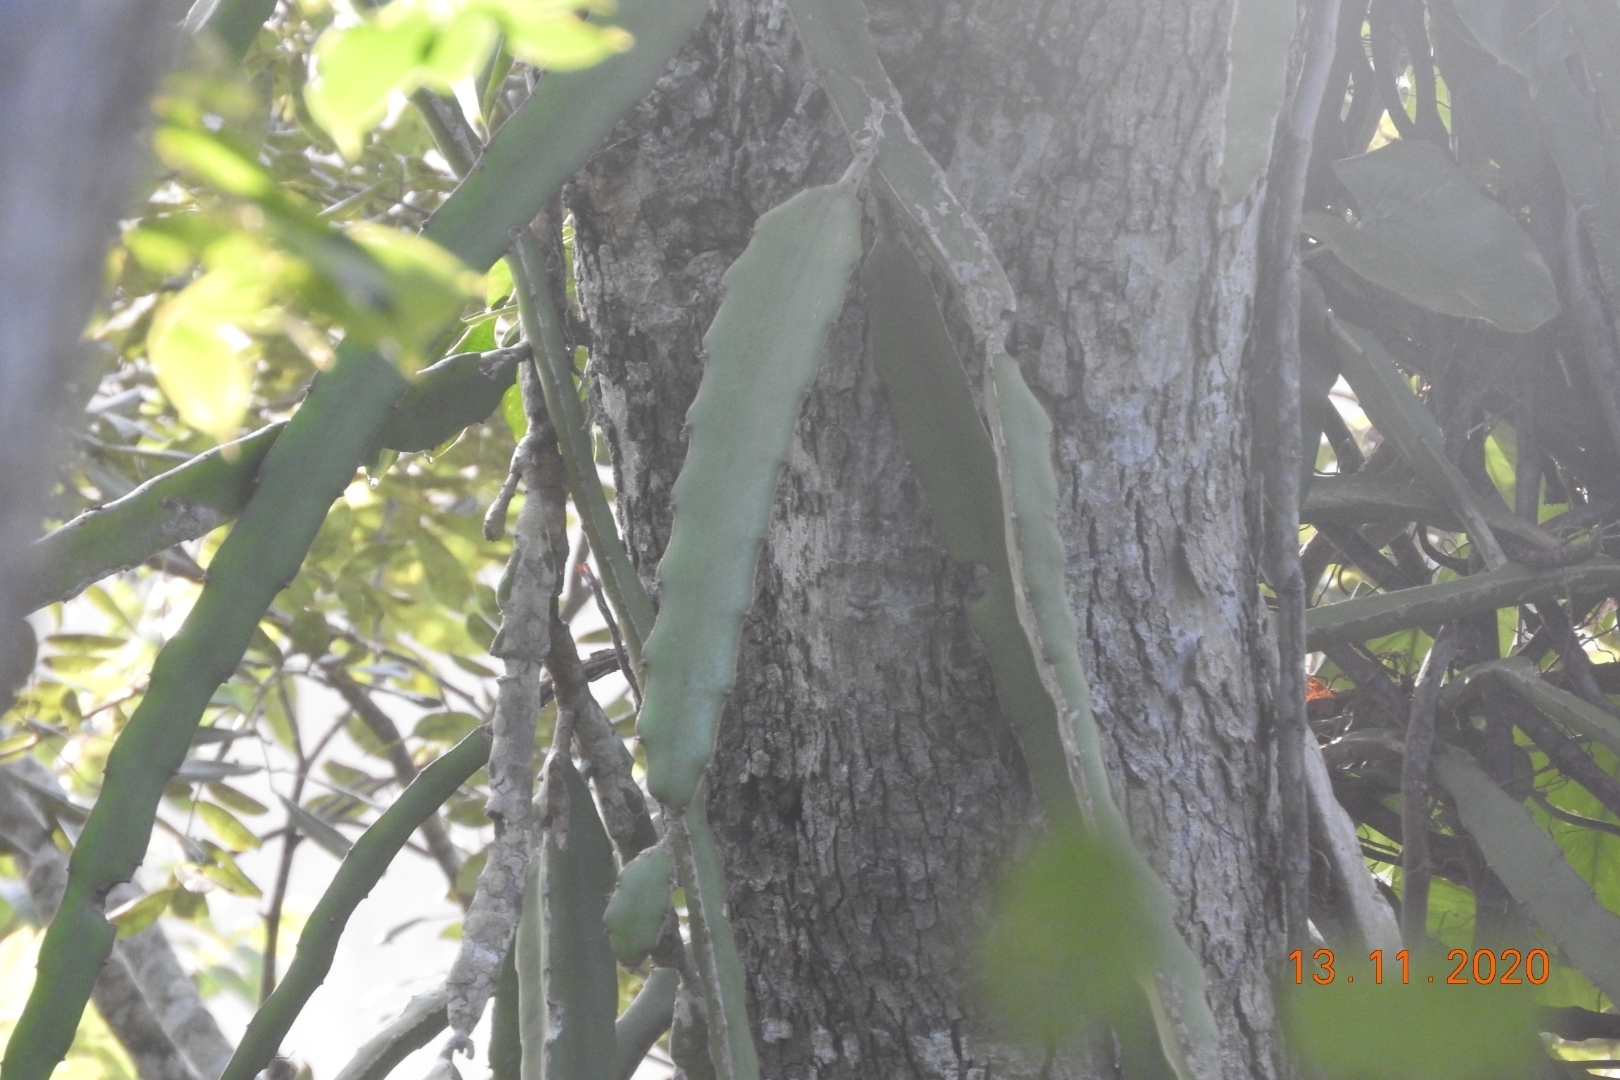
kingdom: Plantae
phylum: Tracheophyta
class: Magnoliopsida
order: Caryophyllales
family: Cactaceae
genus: Selenicereus
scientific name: Selenicereus undatus
